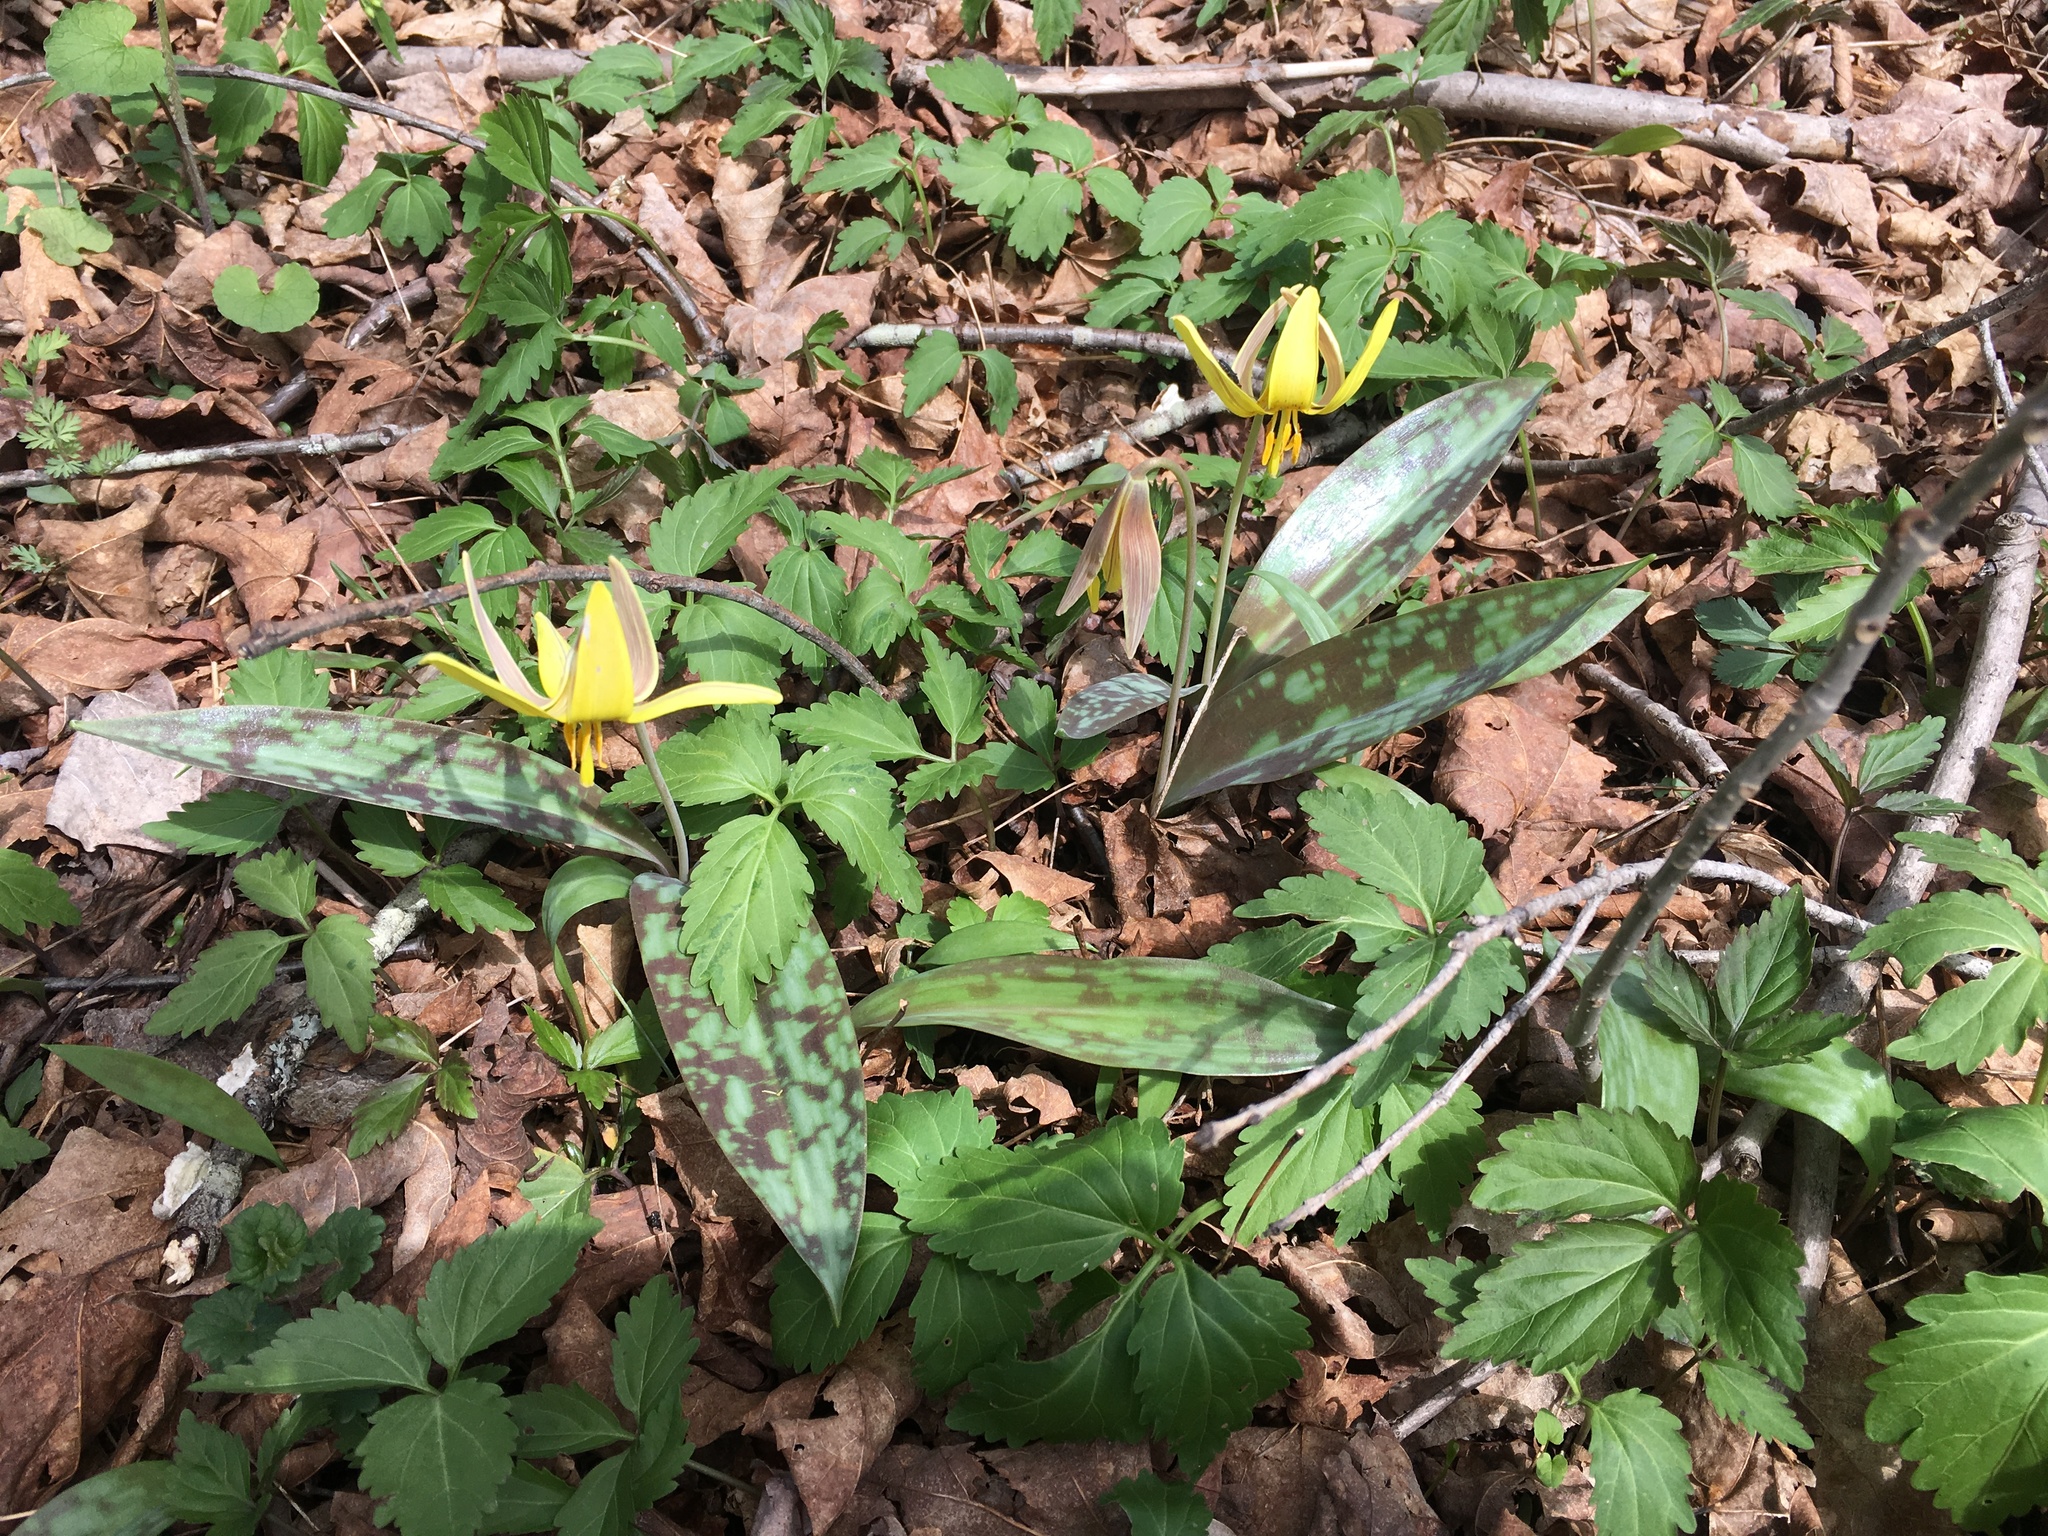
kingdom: Plantae
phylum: Tracheophyta
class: Liliopsida
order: Liliales
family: Liliaceae
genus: Erythronium
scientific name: Erythronium americanum
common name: Yellow adder's-tongue
